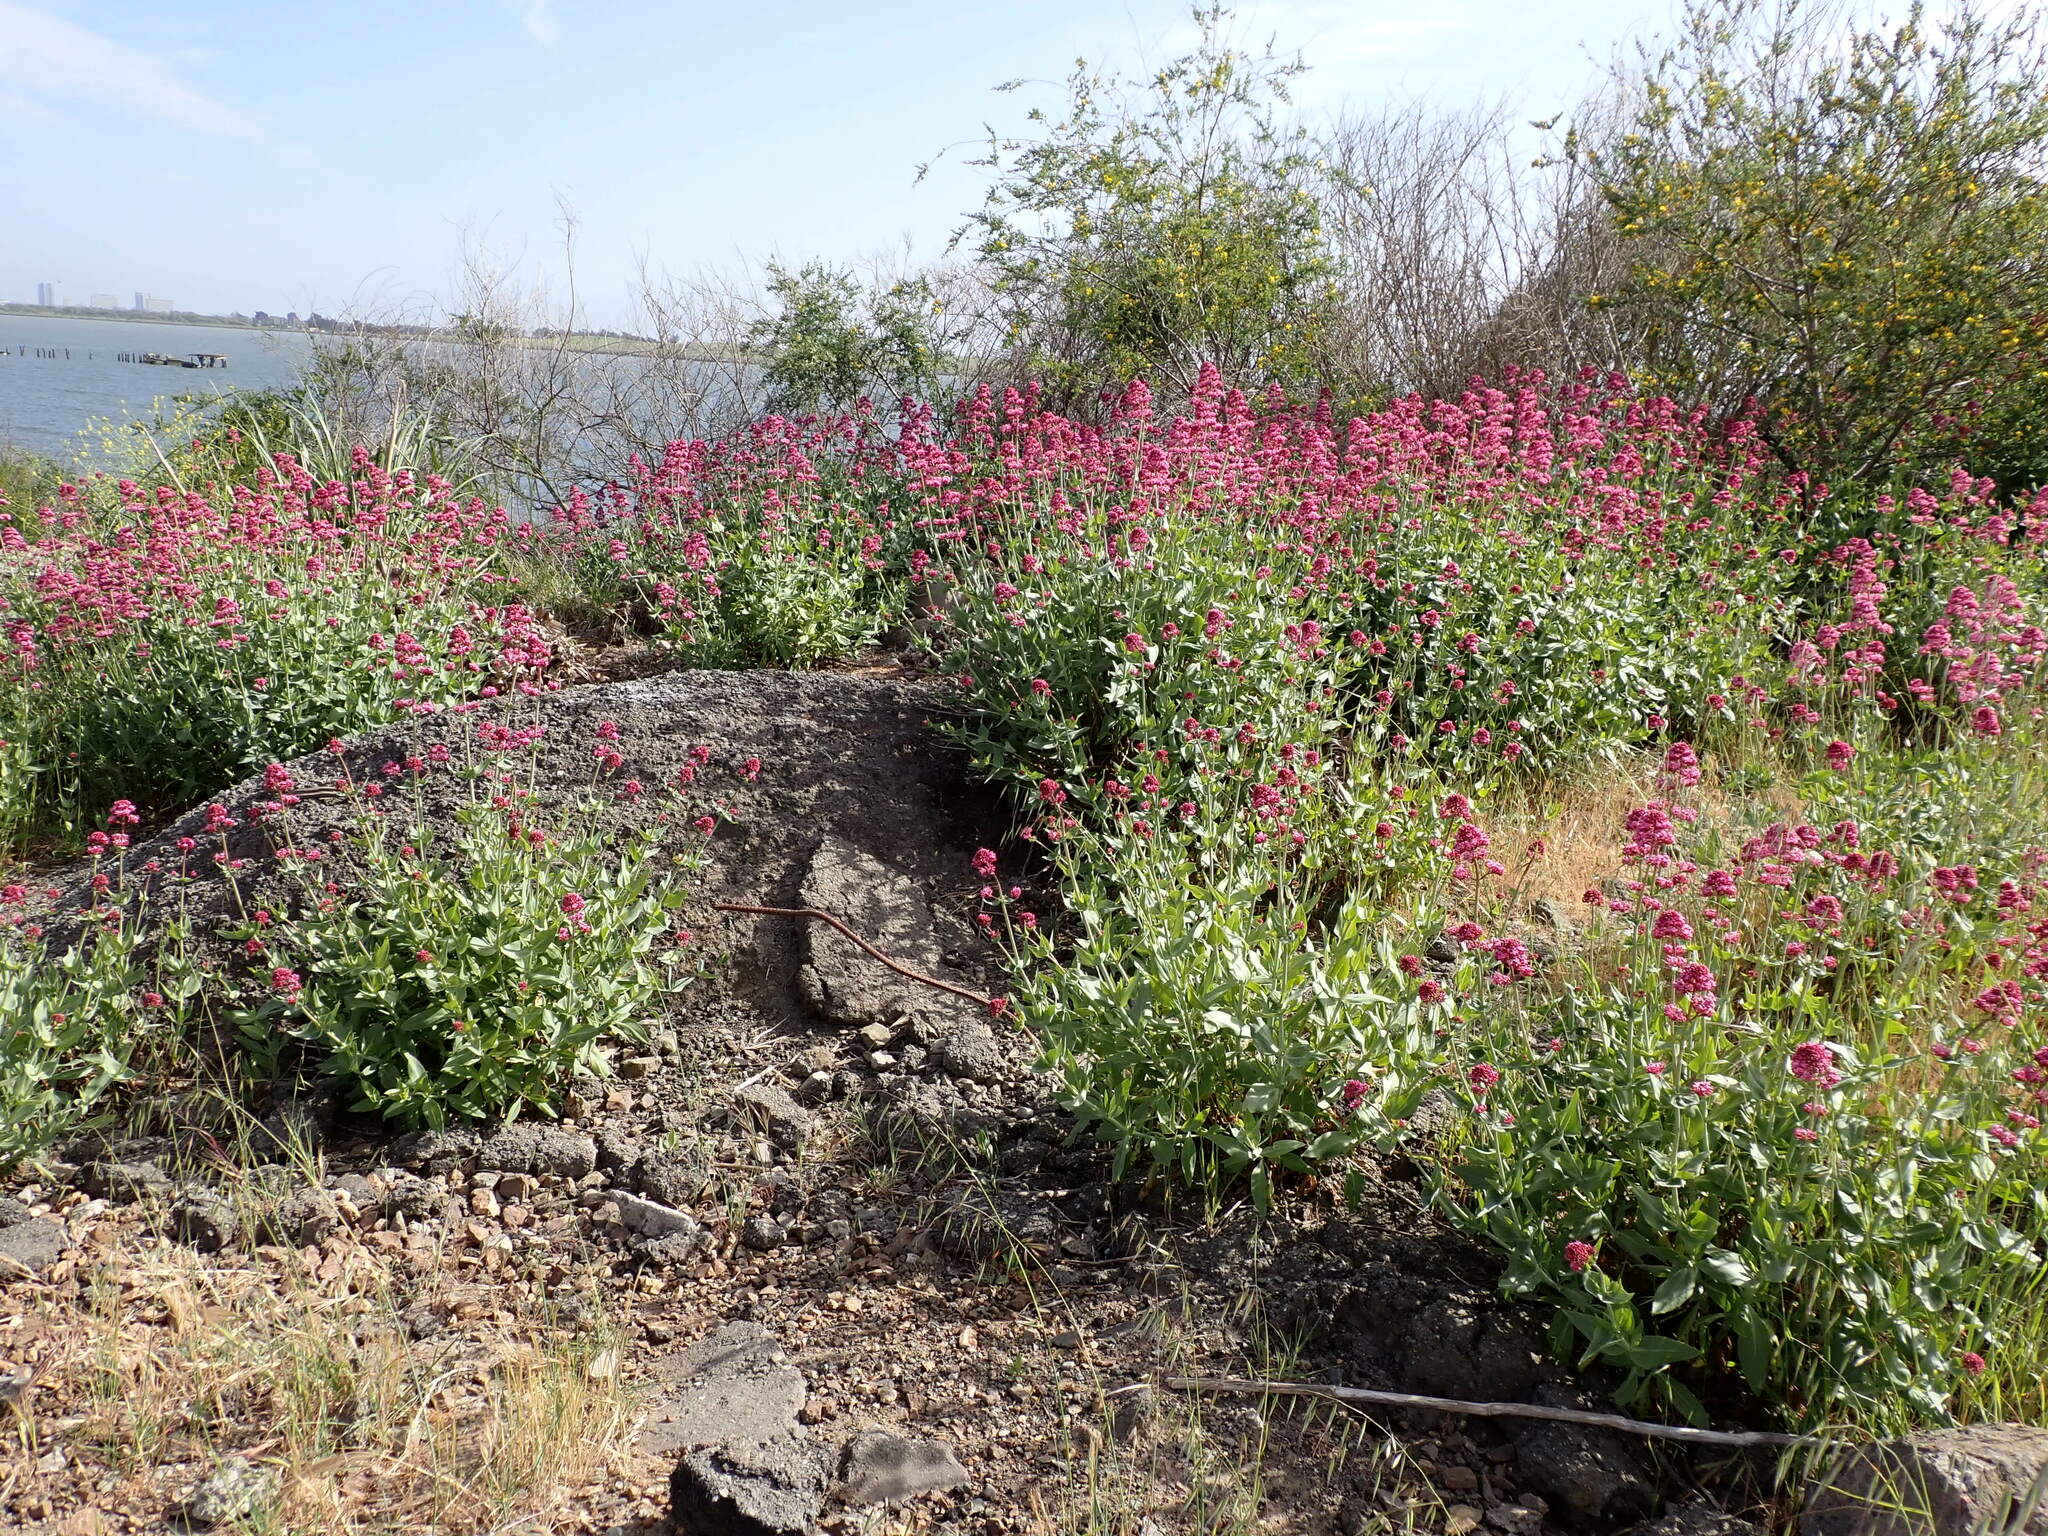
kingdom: Plantae
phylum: Tracheophyta
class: Magnoliopsida
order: Dipsacales
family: Caprifoliaceae
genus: Centranthus
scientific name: Centranthus ruber
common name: Red valerian
